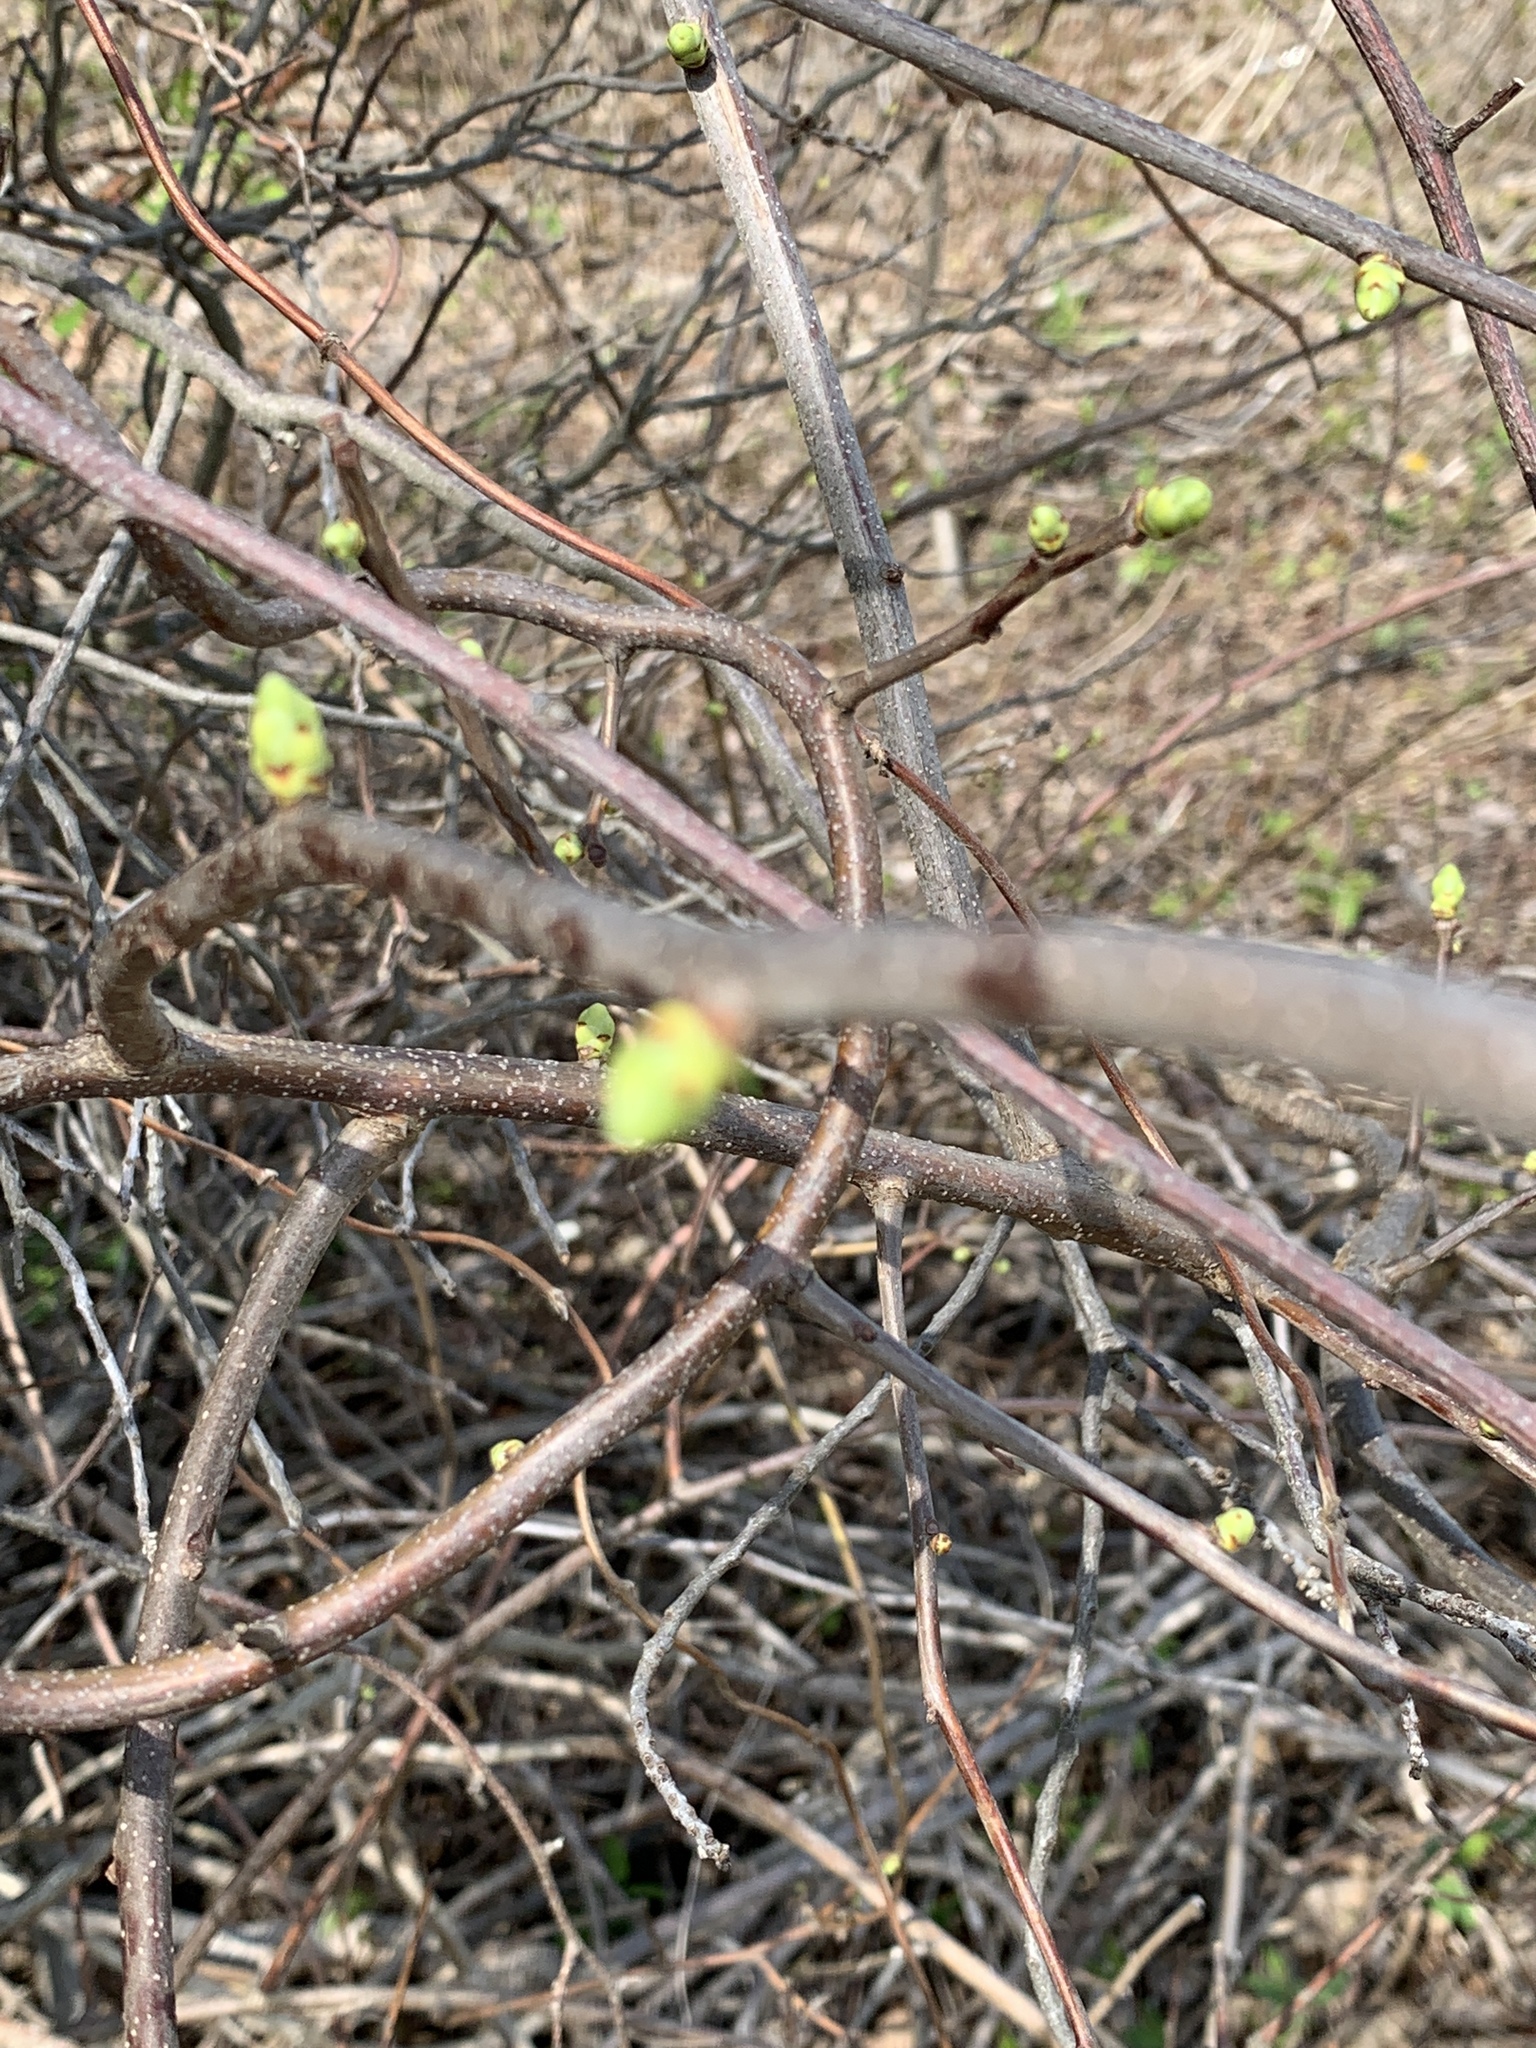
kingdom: Plantae
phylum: Tracheophyta
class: Magnoliopsida
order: Celastrales
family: Celastraceae
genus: Celastrus
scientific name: Celastrus orbiculatus
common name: Oriental bittersweet
